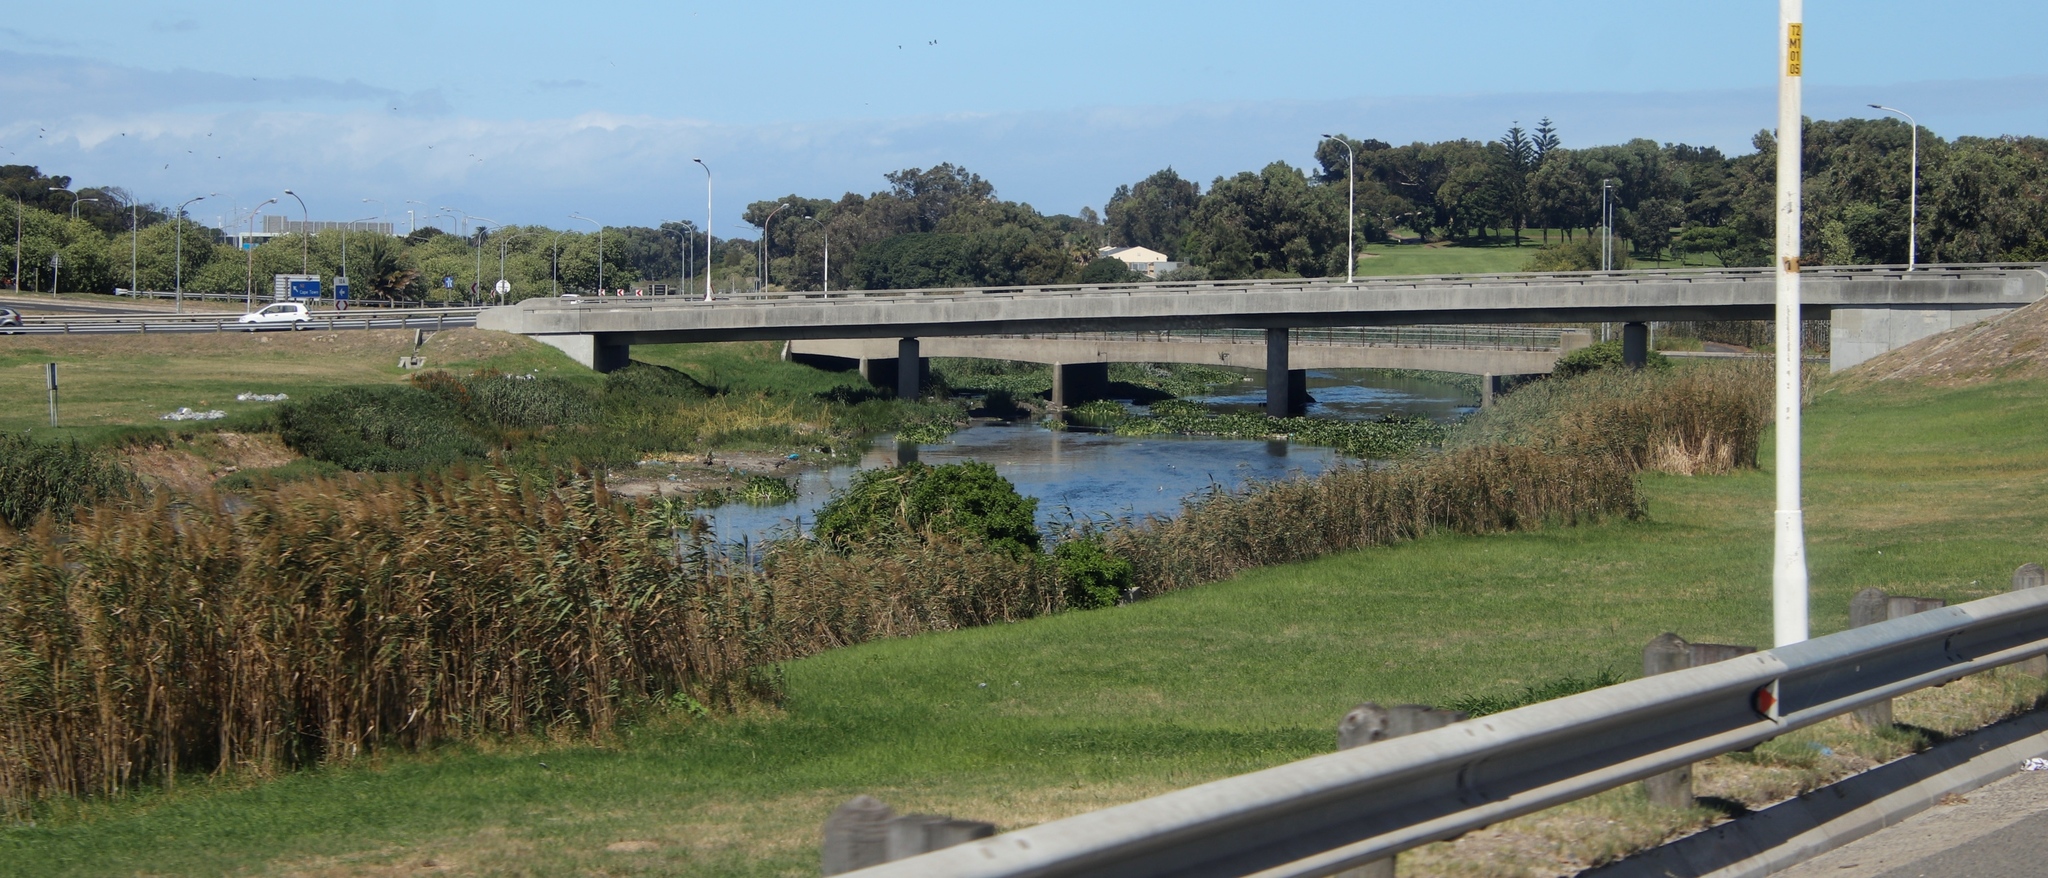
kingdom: Plantae
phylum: Tracheophyta
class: Liliopsida
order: Commelinales
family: Pontederiaceae
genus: Pontederia
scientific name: Pontederia crassipes
